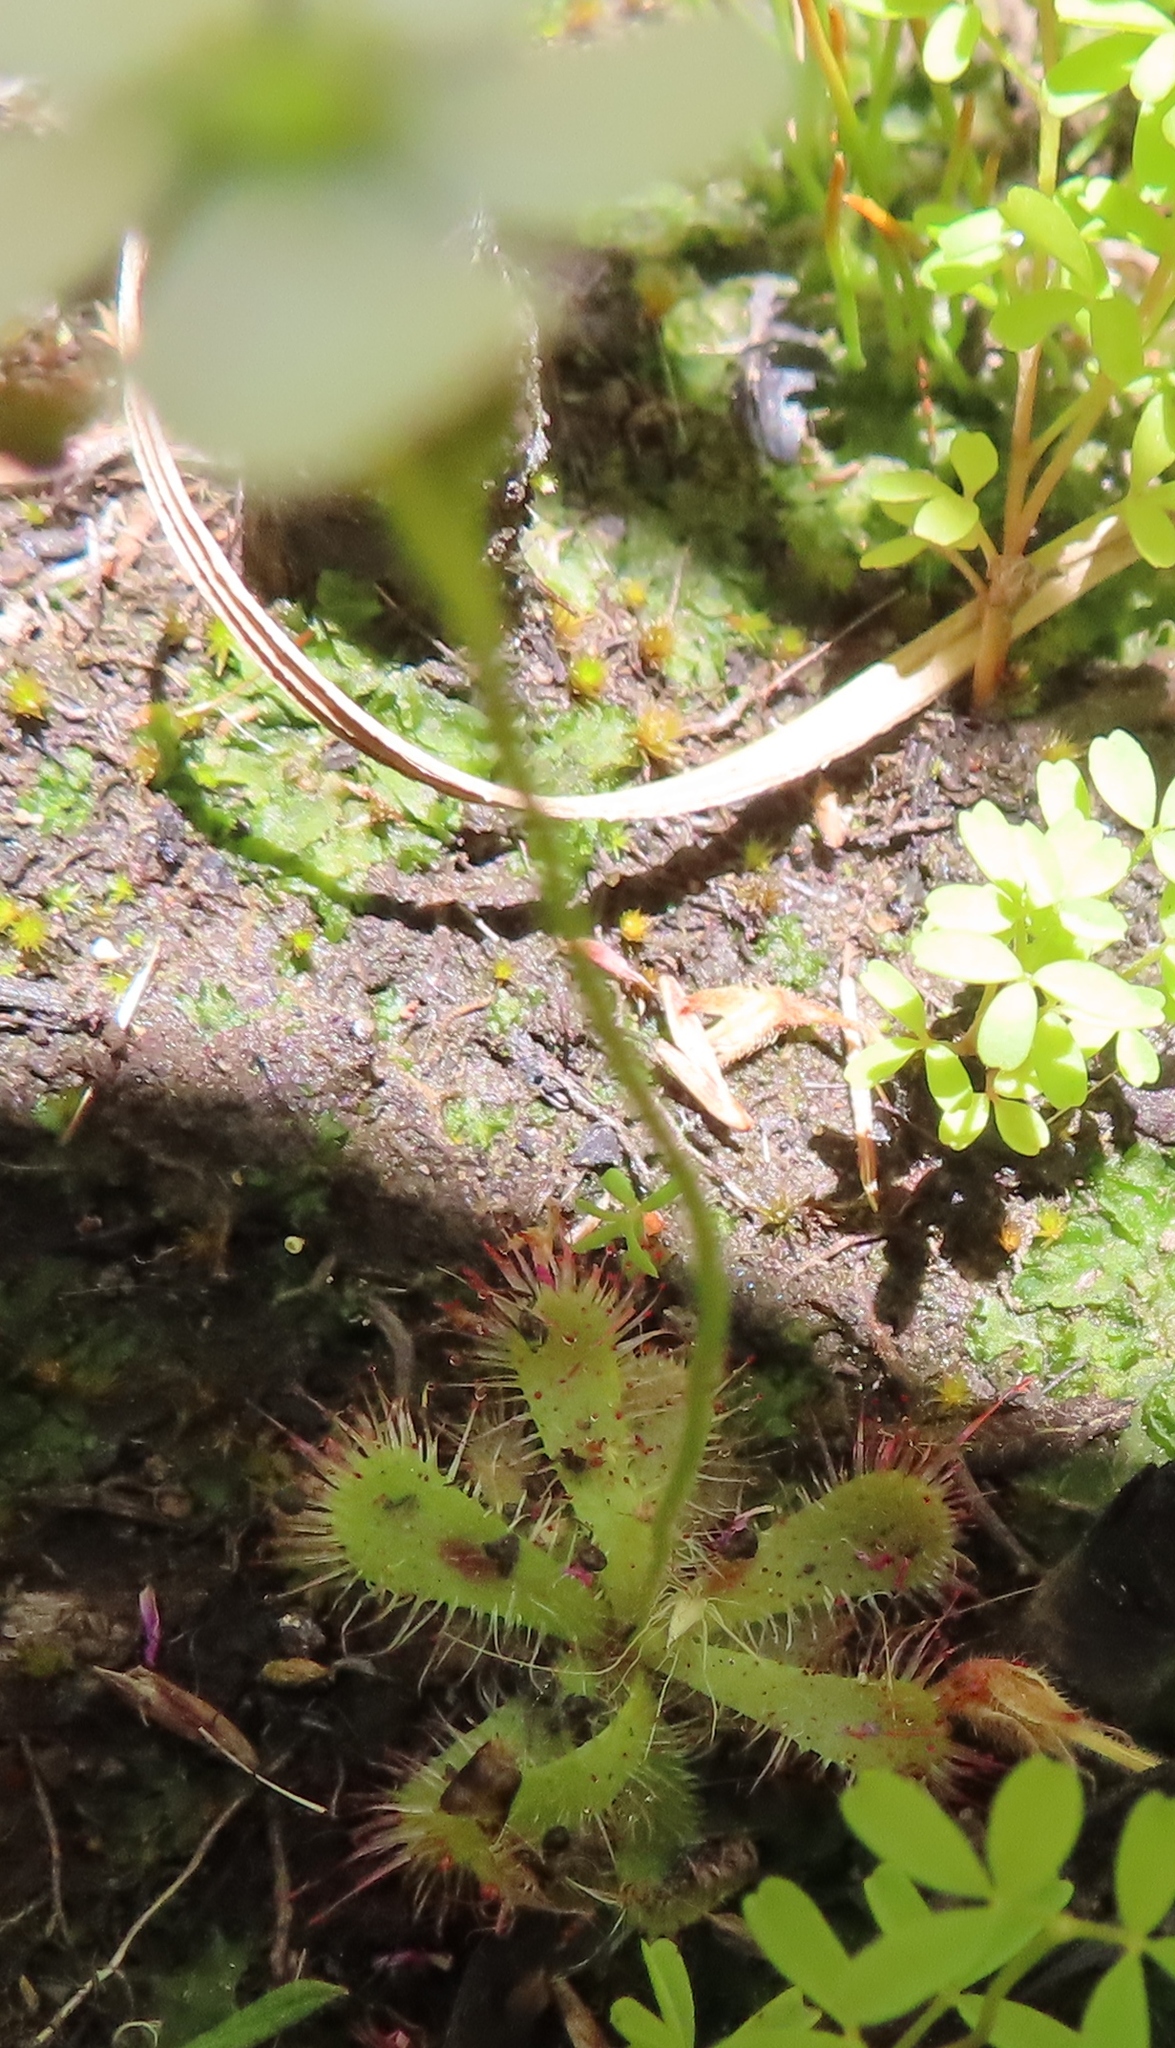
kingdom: Plantae
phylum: Tracheophyta
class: Magnoliopsida
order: Caryophyllales
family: Droseraceae
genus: Drosera
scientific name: Drosera trinervia
